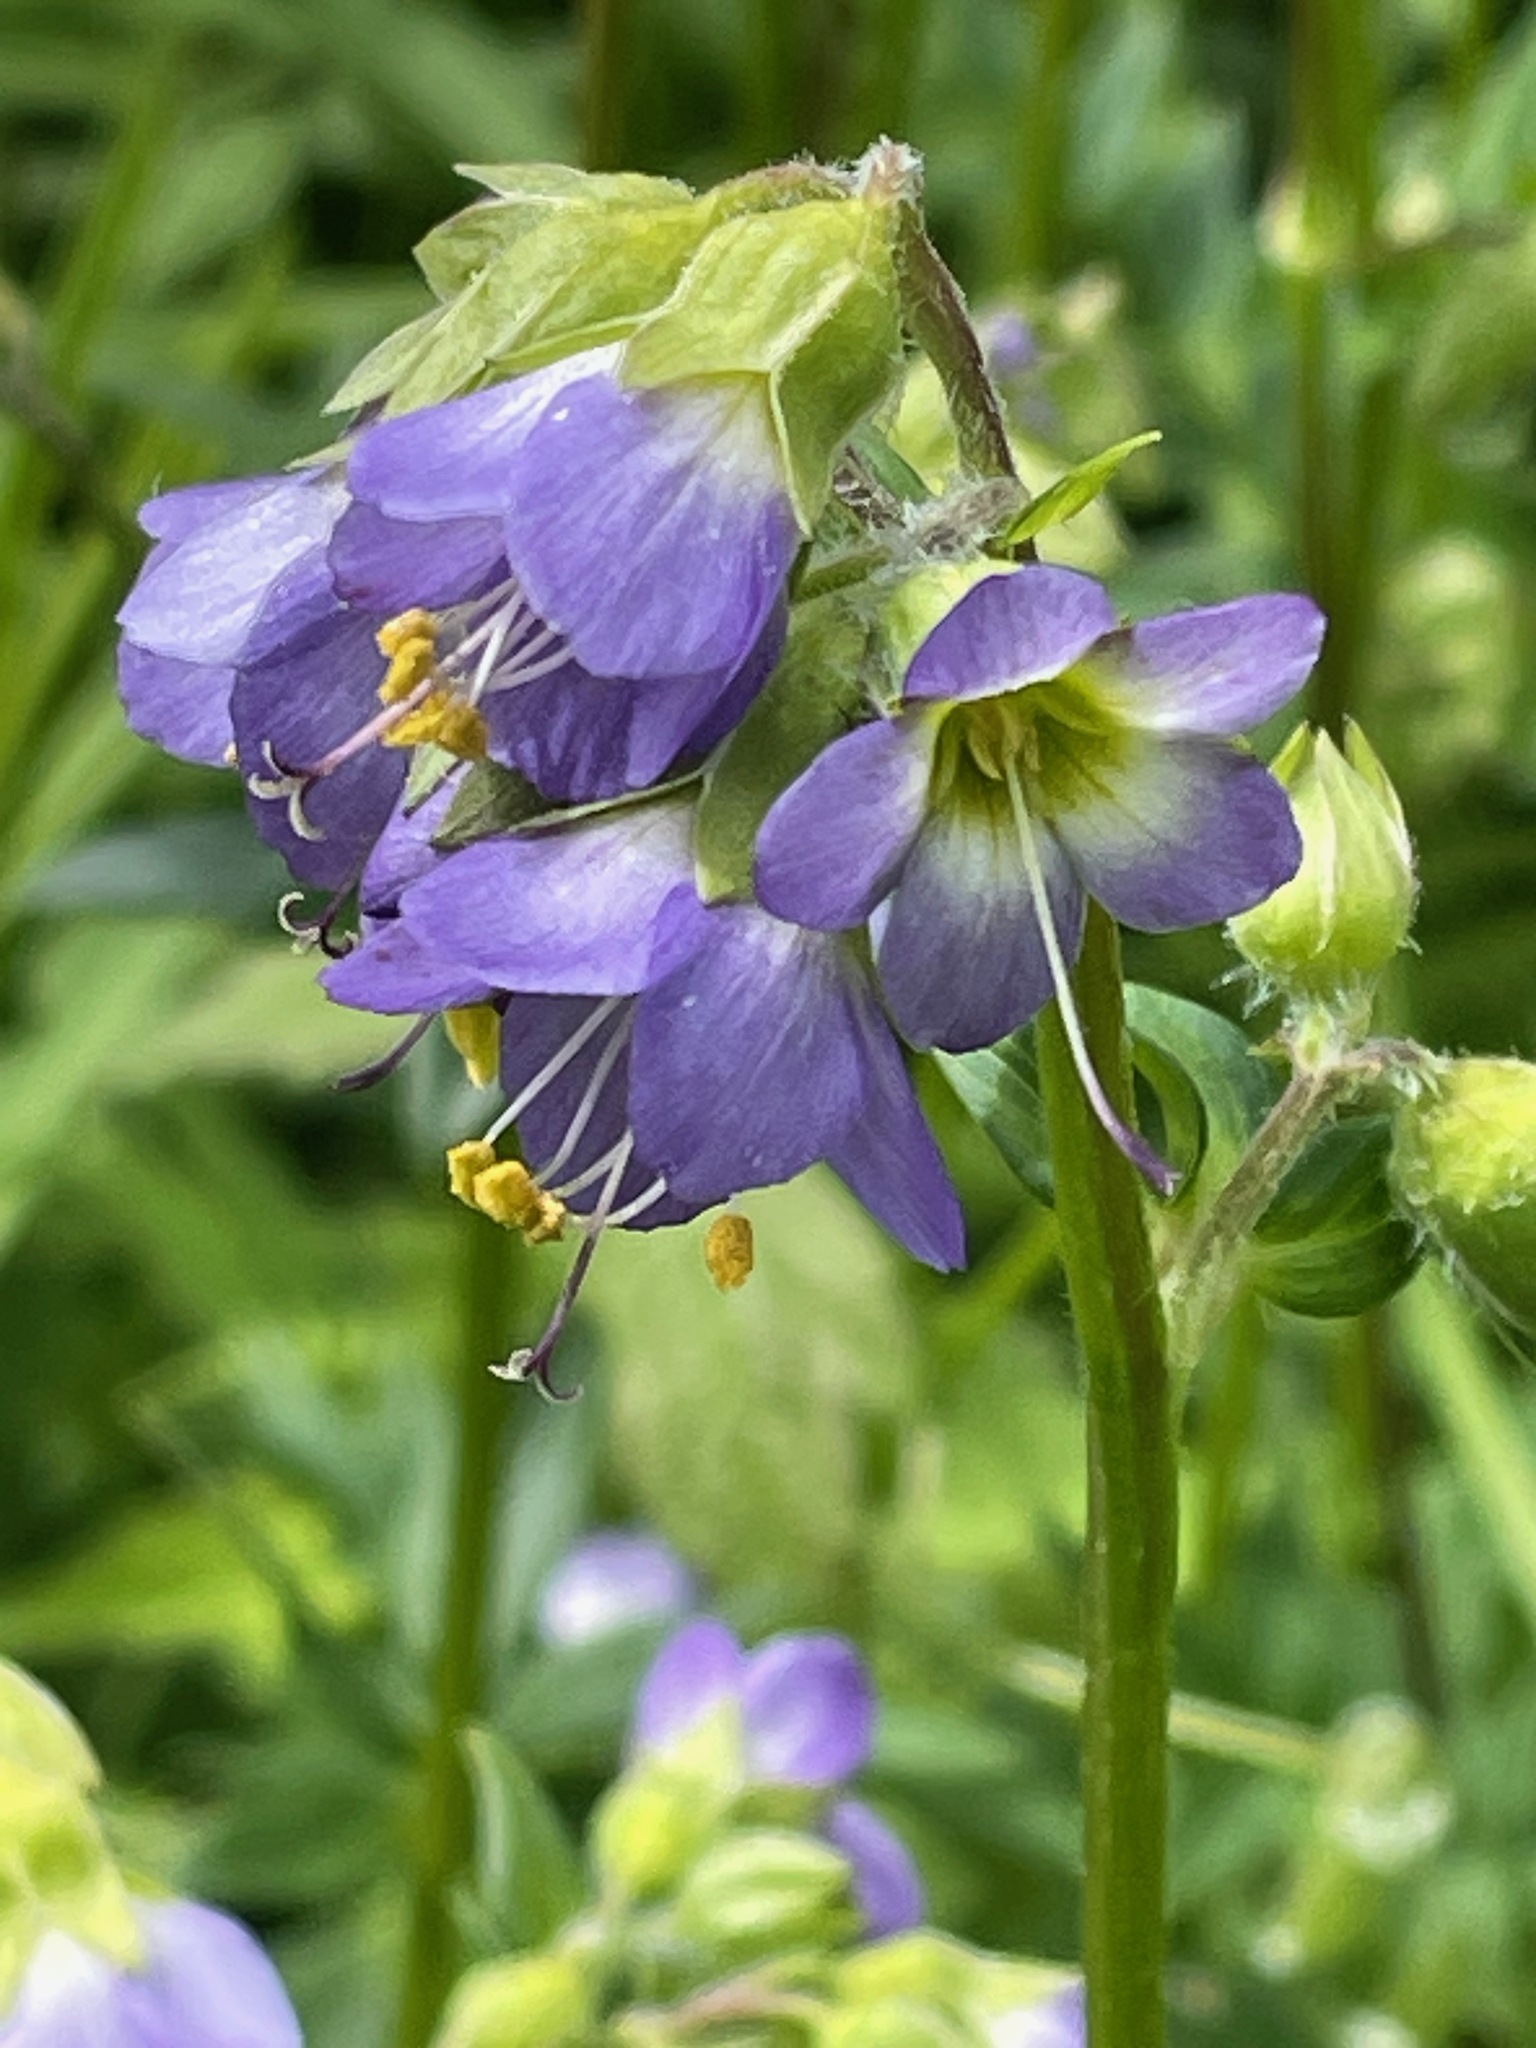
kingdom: Plantae
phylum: Tracheophyta
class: Magnoliopsida
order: Ericales
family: Polemoniaceae
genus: Polemonium
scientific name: Polemonium vanbruntiae
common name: Bog jacob's-ladder
